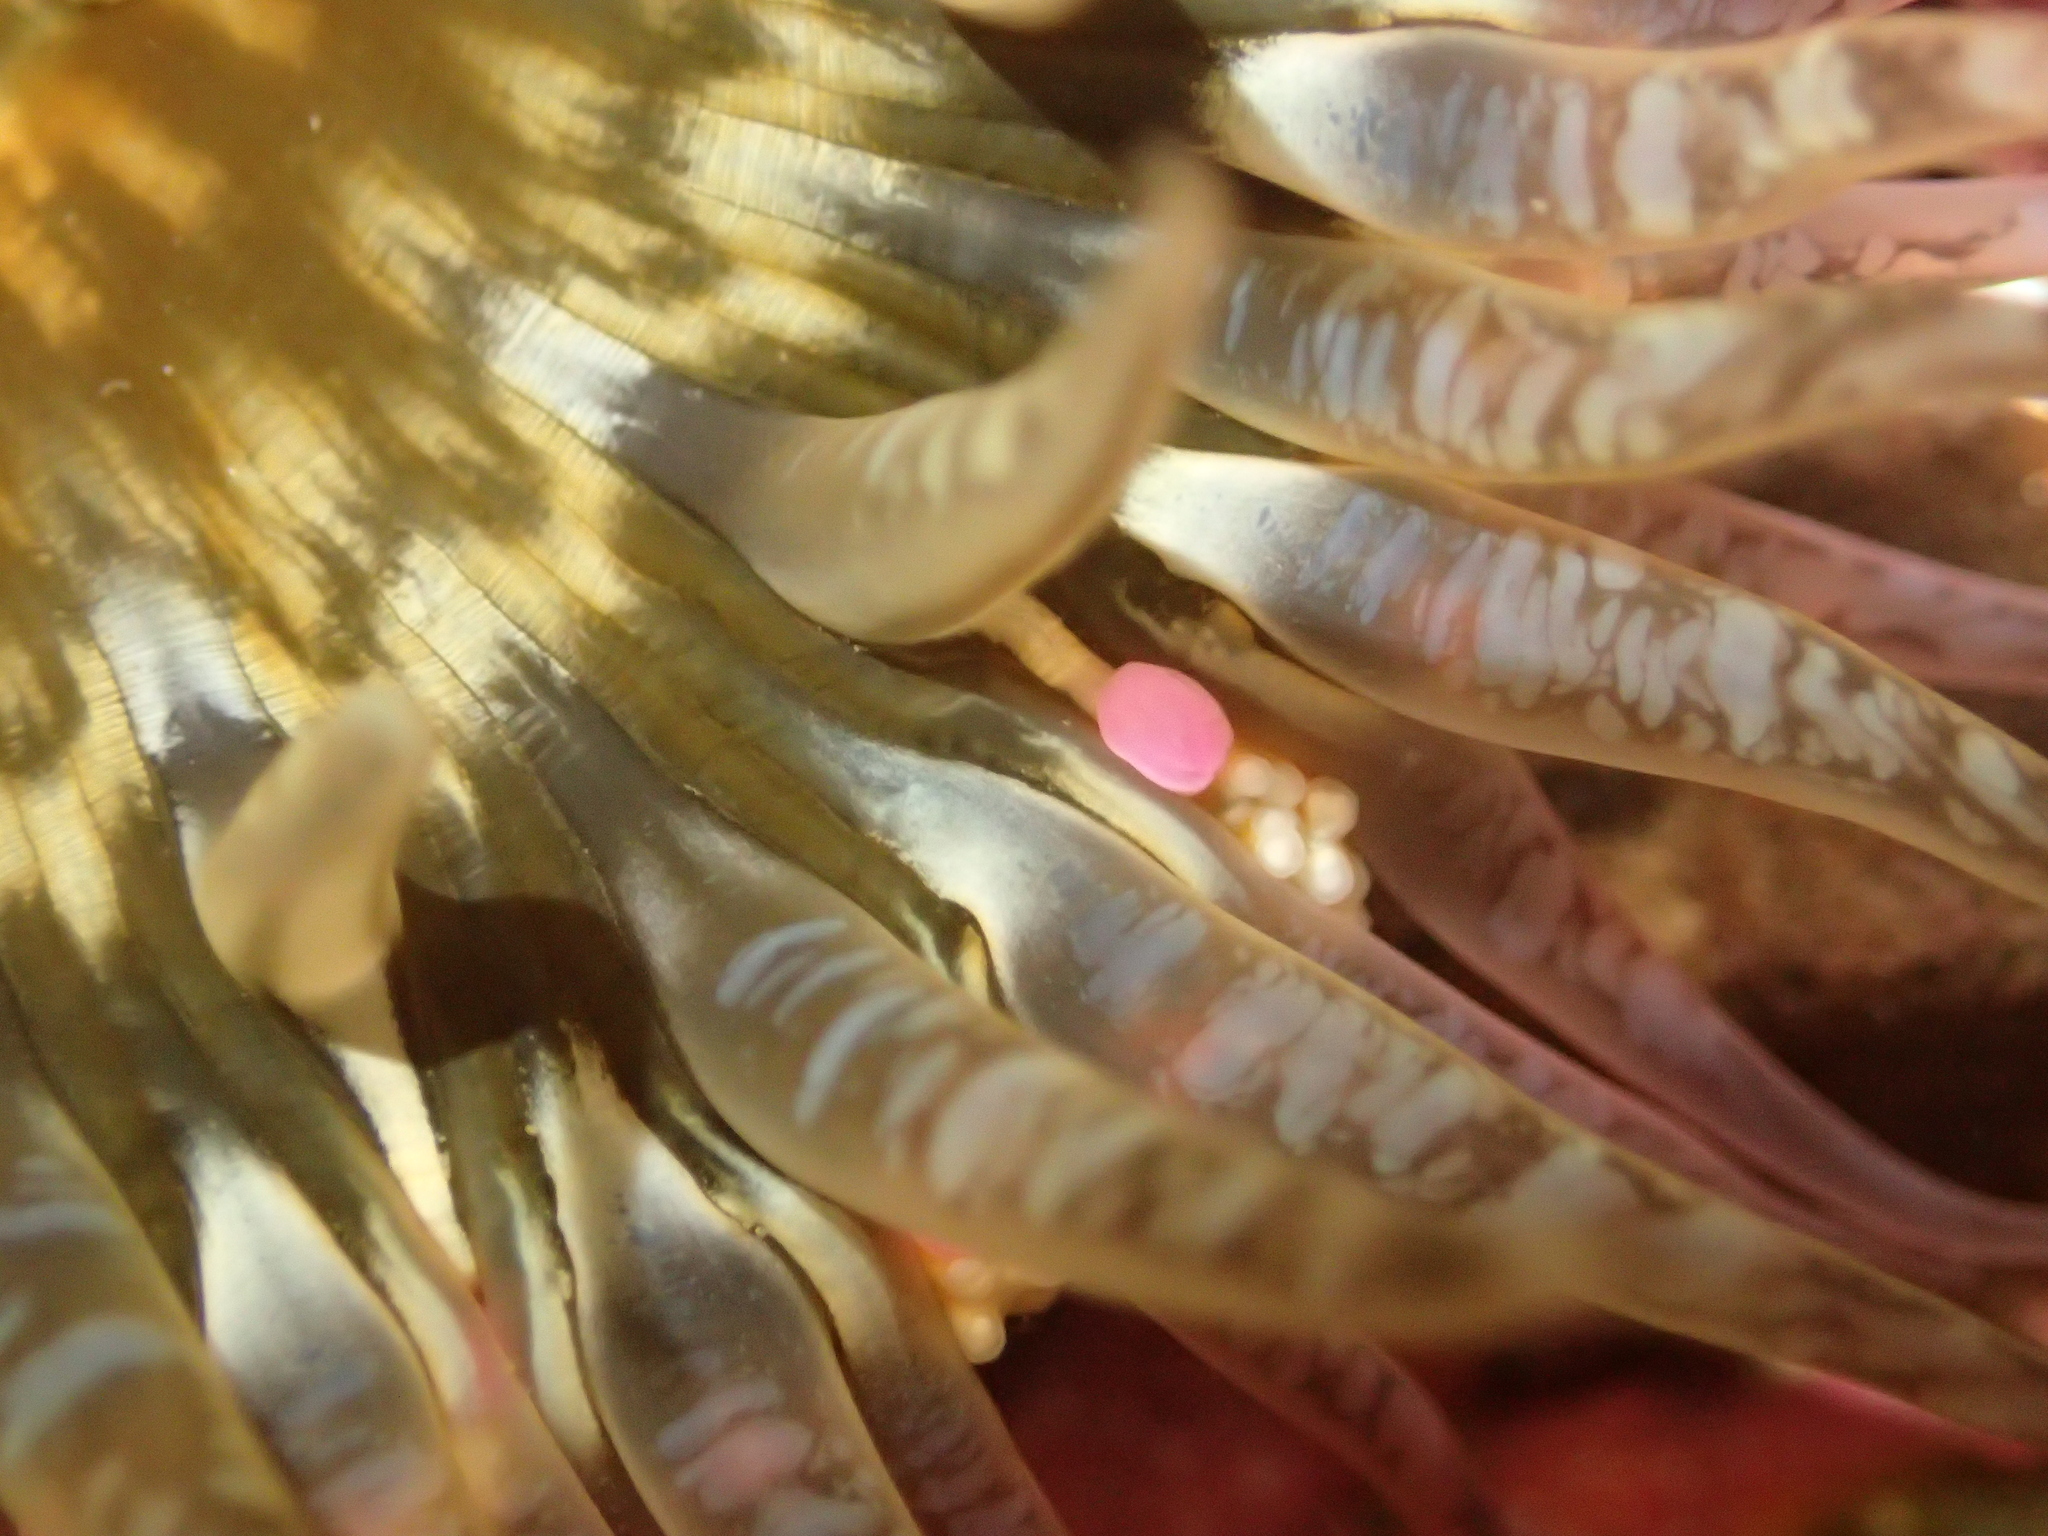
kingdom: Animalia
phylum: Cnidaria
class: Anthozoa
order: Actiniaria
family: Actiniidae
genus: Oulactis
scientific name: Oulactis muscosa
